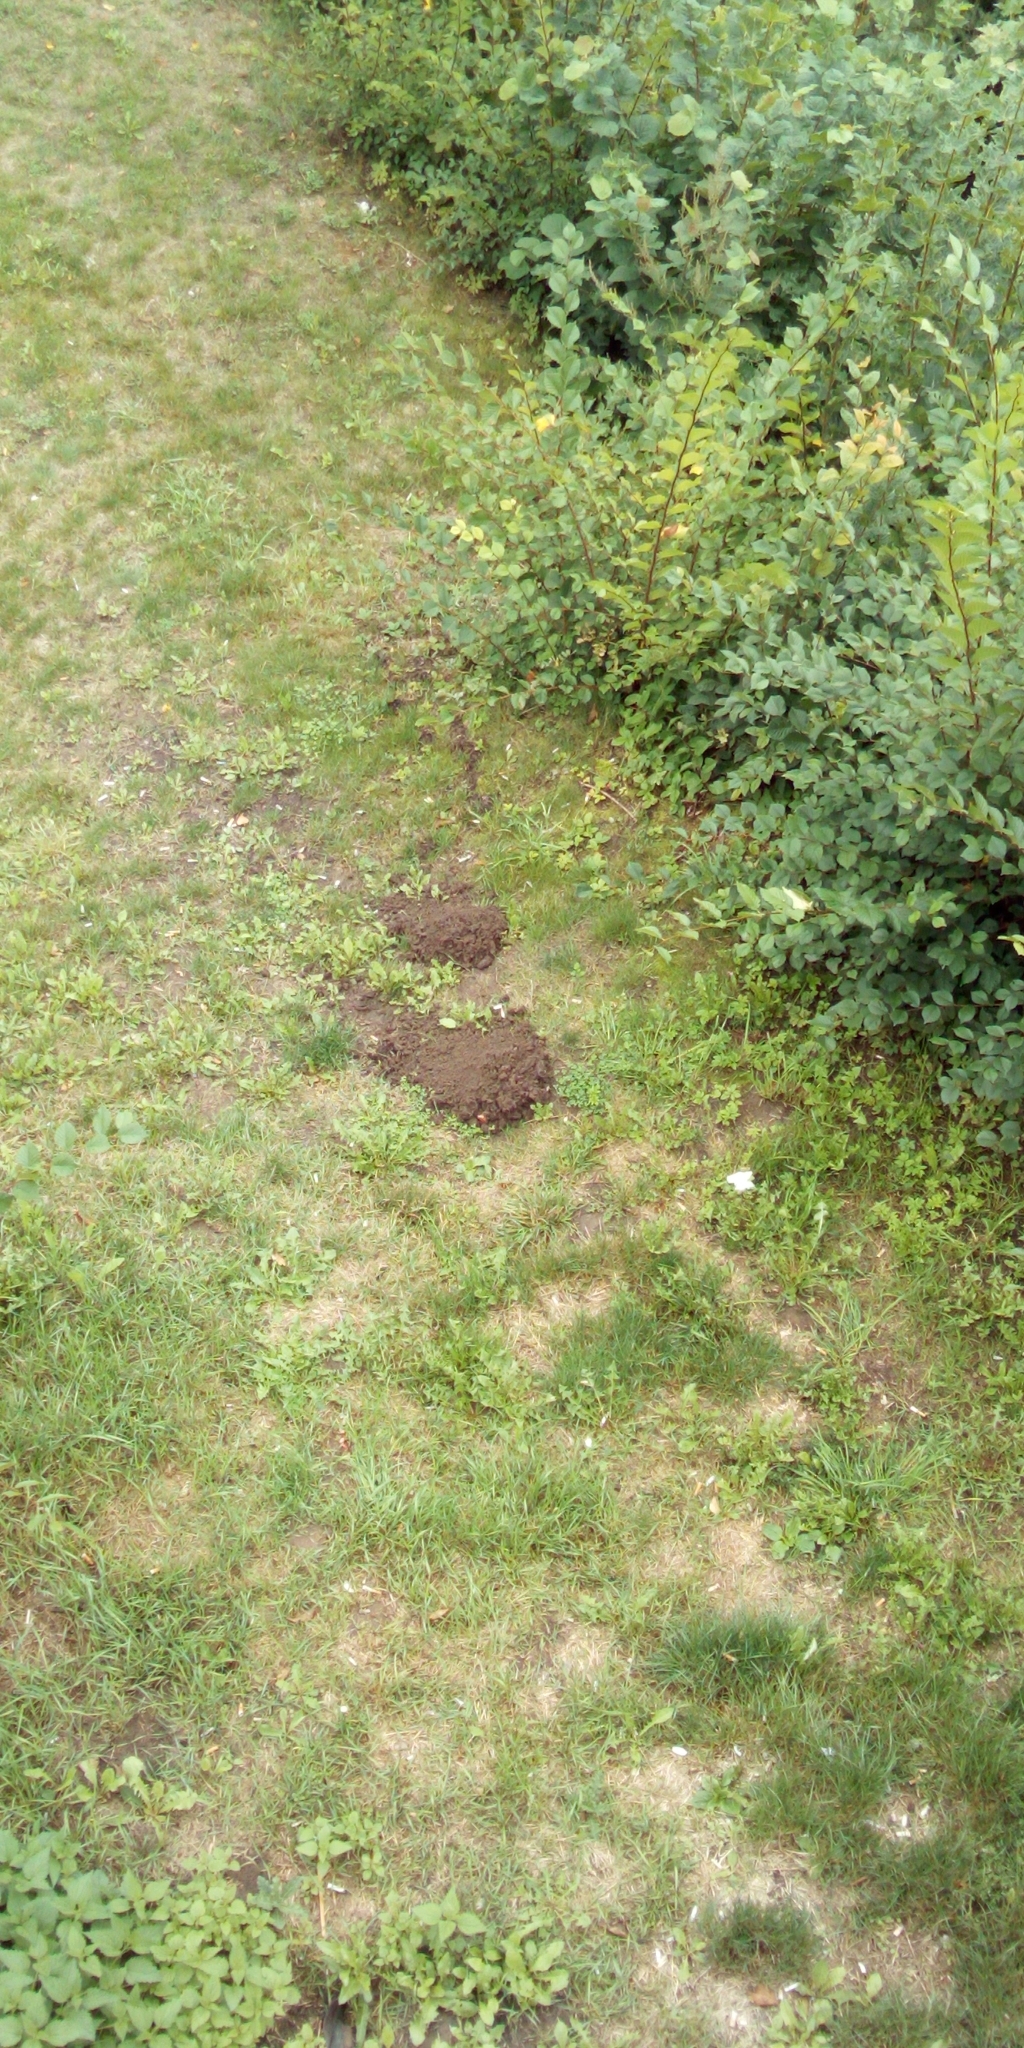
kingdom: Animalia
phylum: Chordata
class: Mammalia
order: Soricomorpha
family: Talpidae
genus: Talpa
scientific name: Talpa europaea
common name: European mole
